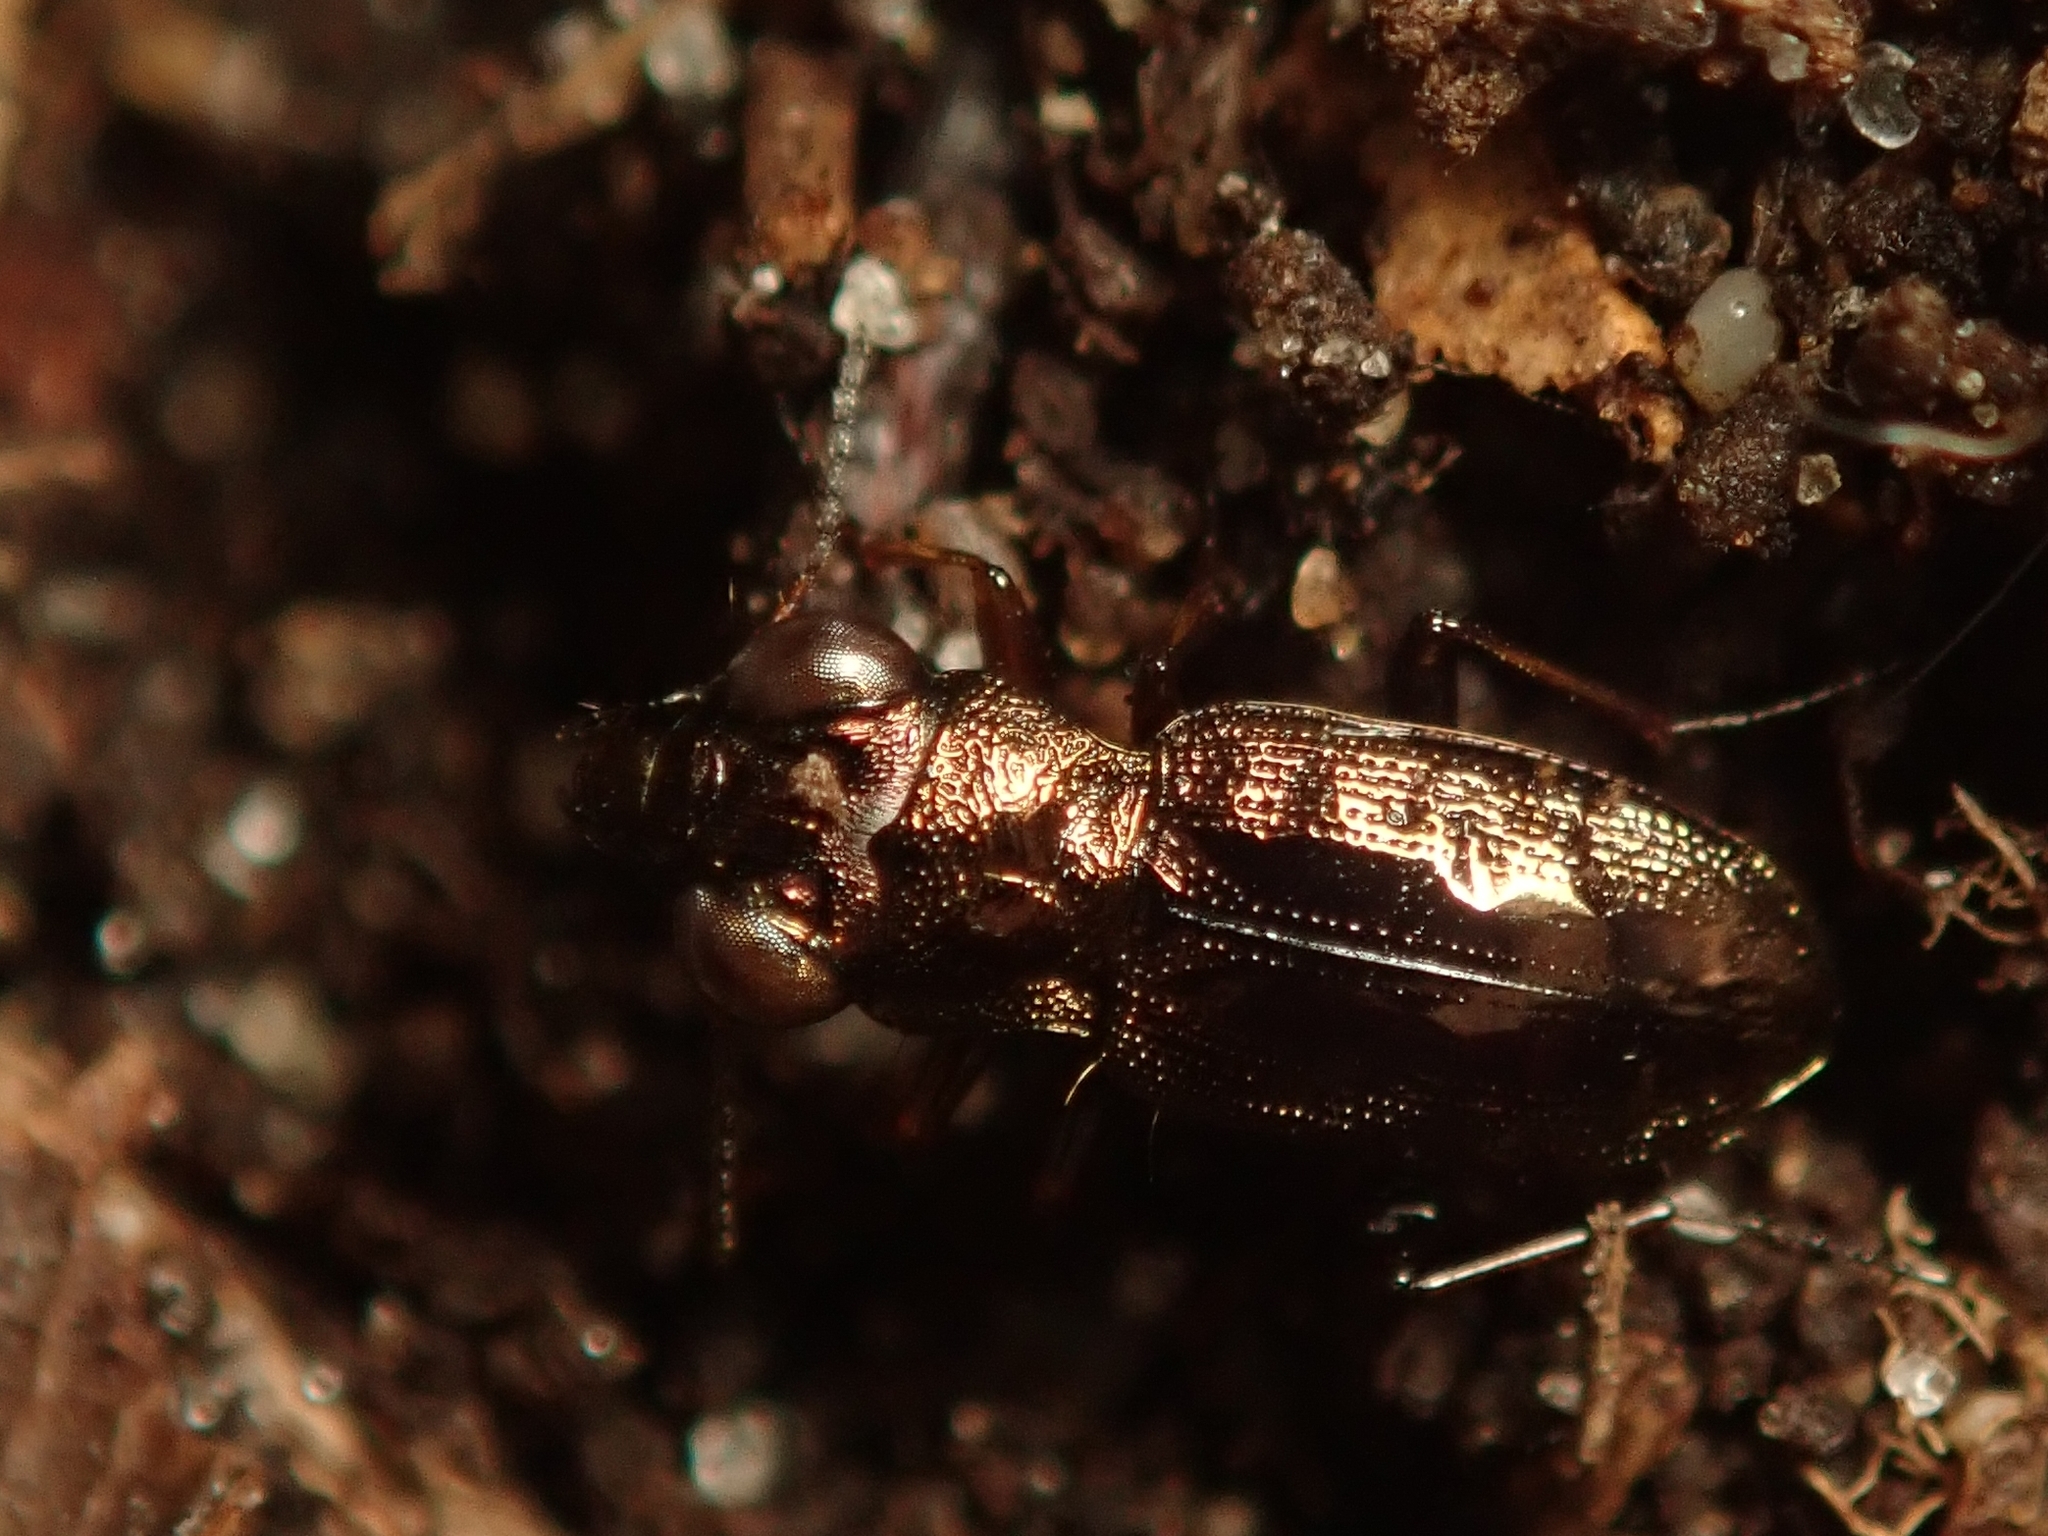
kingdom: Animalia
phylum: Arthropoda
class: Insecta
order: Coleoptera
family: Carabidae
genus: Notiophilus
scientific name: Notiophilus biguttatus
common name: Spotted gazelle beetle
